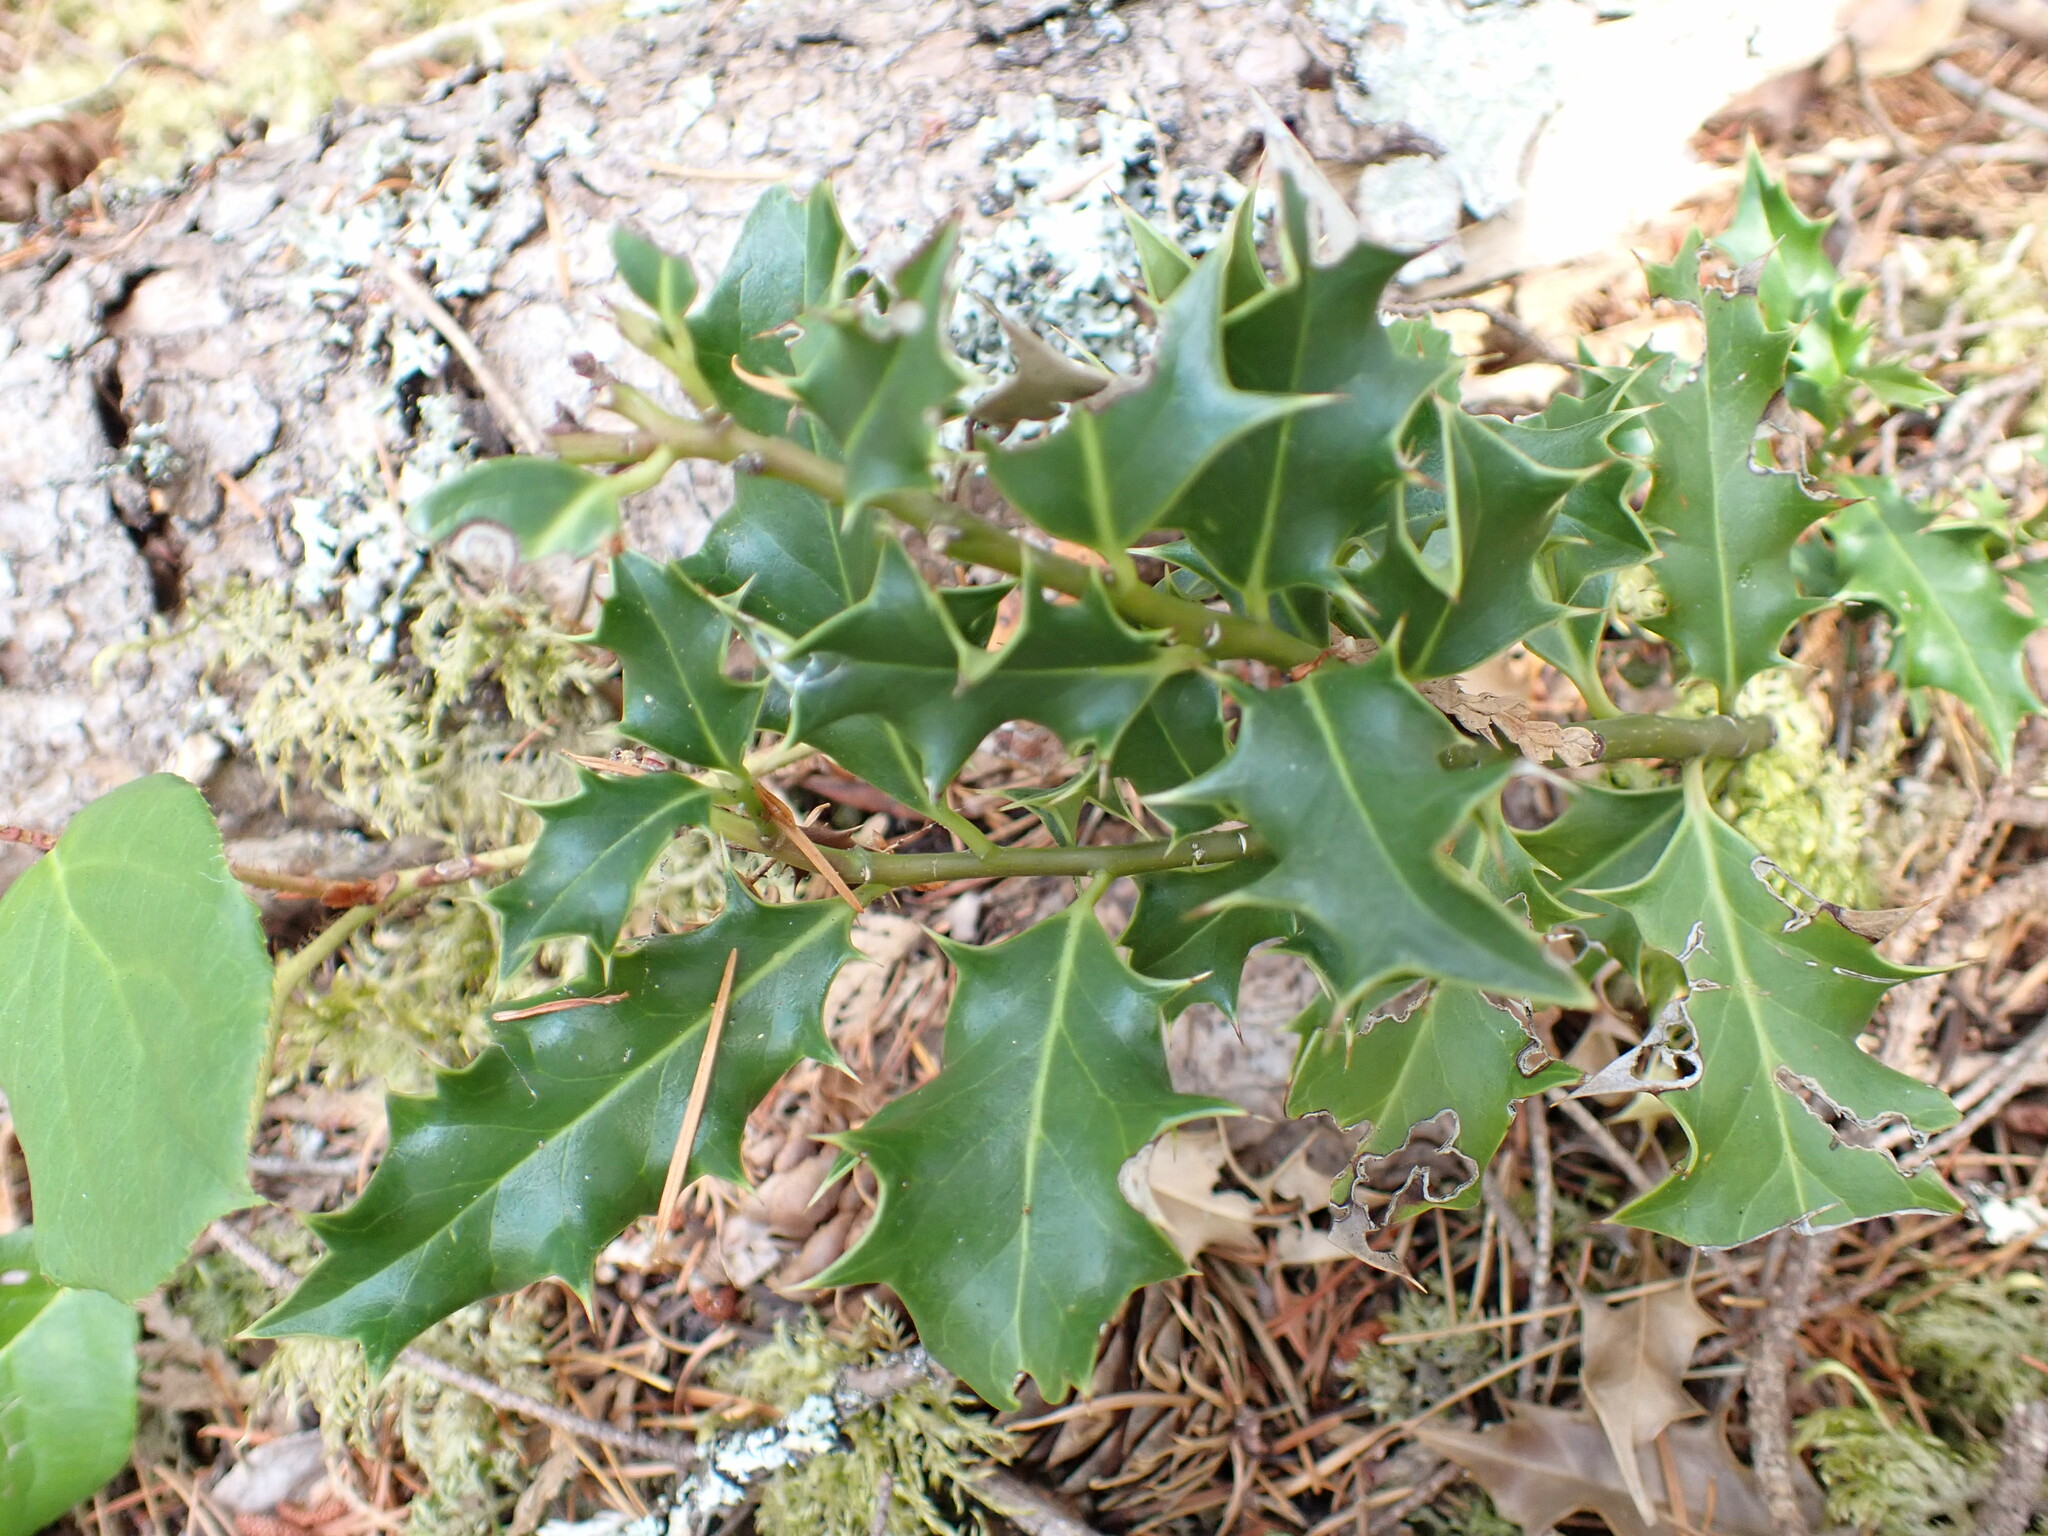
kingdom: Plantae
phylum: Tracheophyta
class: Magnoliopsida
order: Aquifoliales
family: Aquifoliaceae
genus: Ilex
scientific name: Ilex aquifolium
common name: English holly
